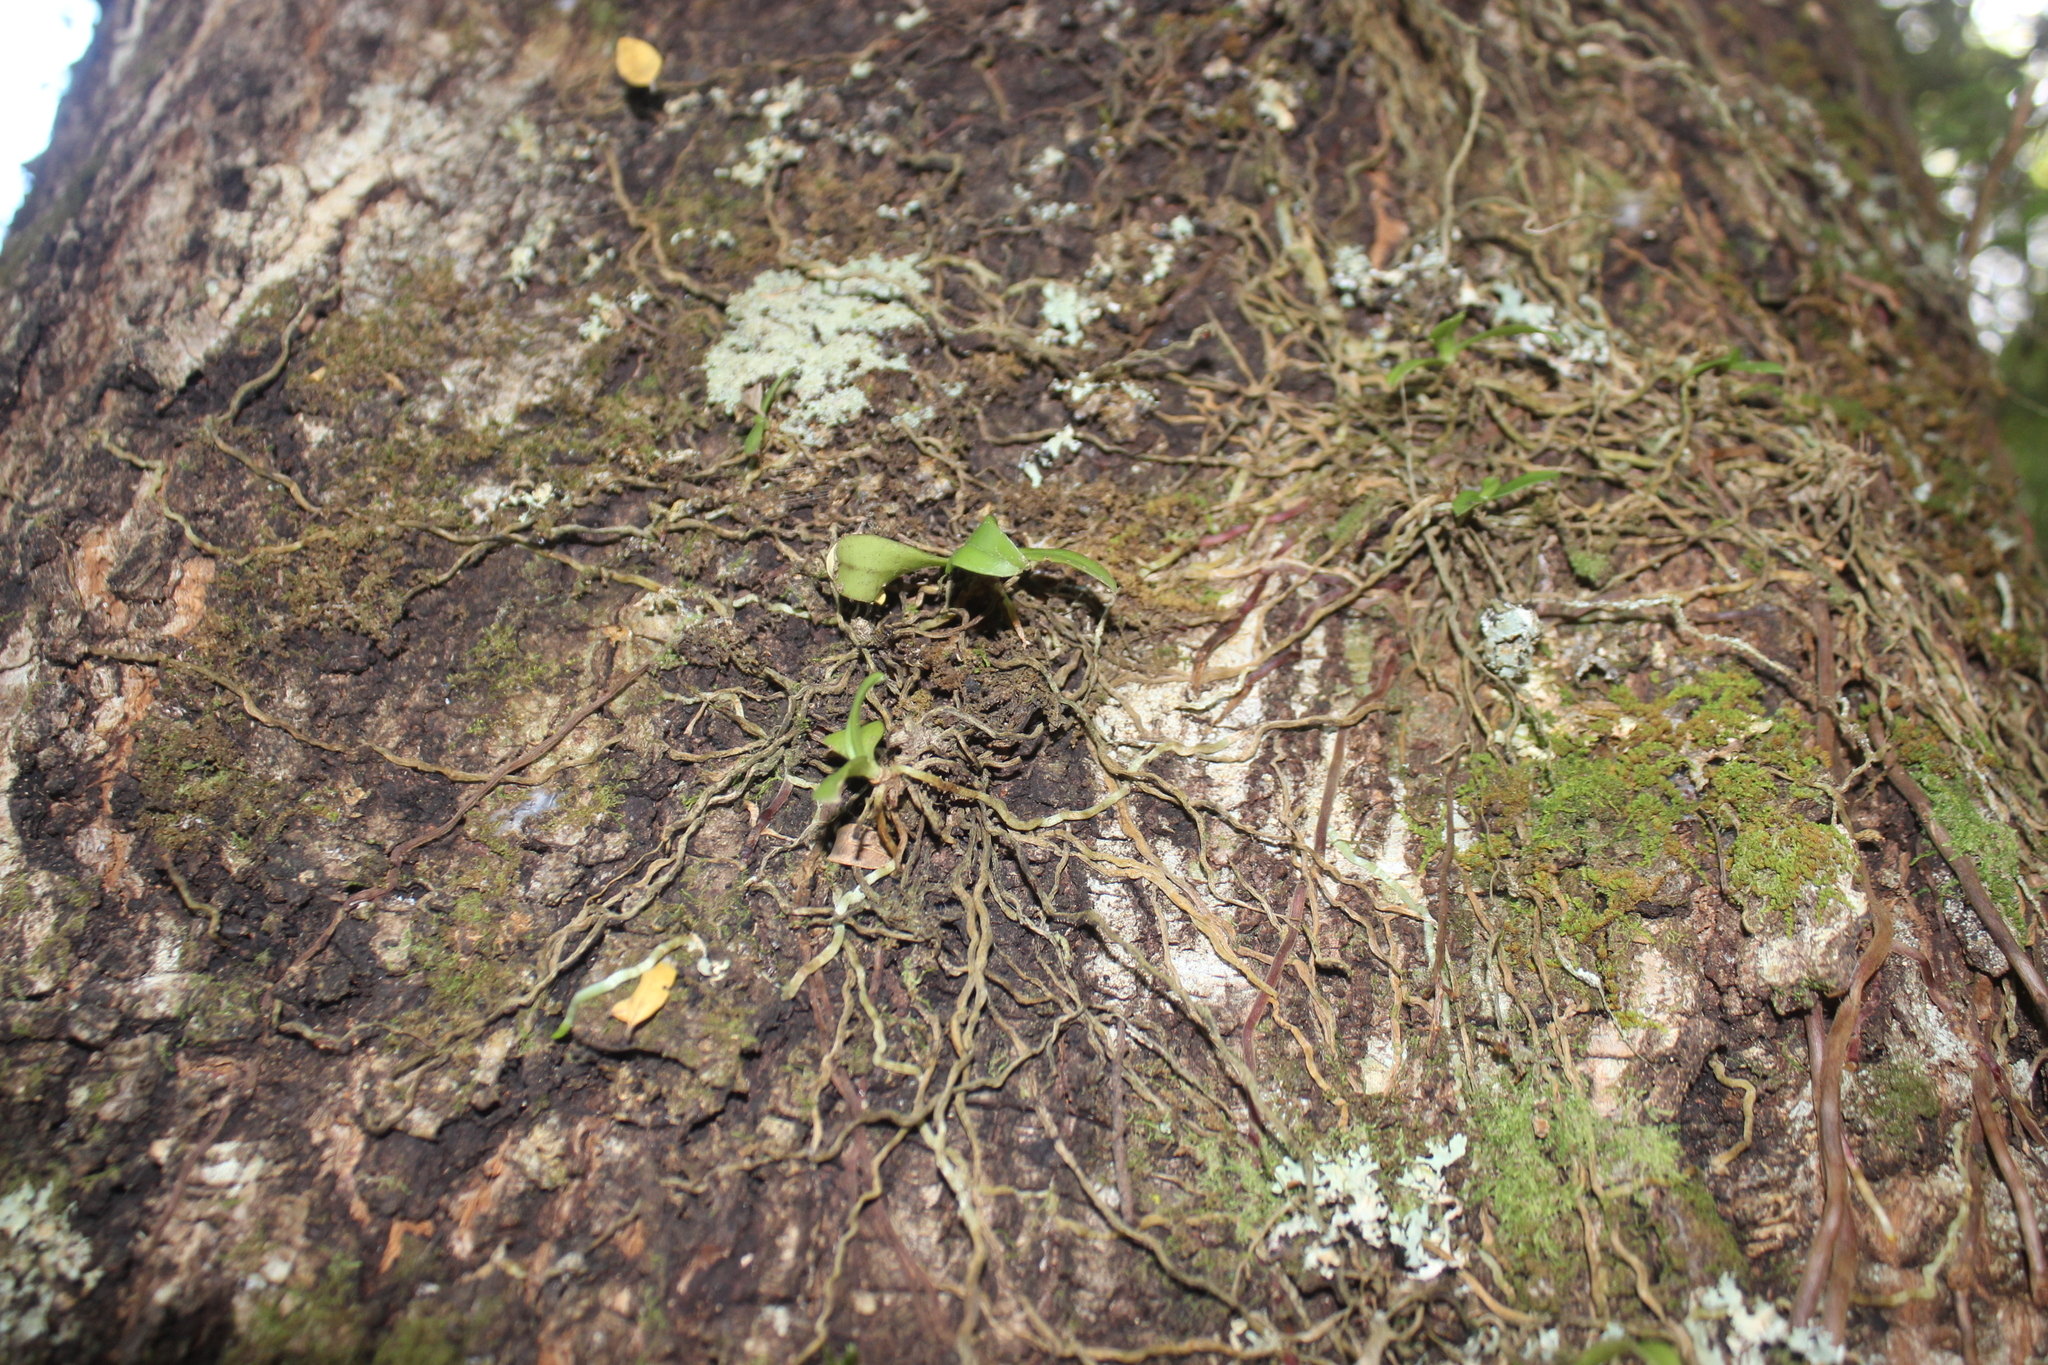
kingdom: Plantae
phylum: Tracheophyta
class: Liliopsida
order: Asparagales
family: Orchidaceae
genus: Drymoanthus
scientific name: Drymoanthus adversus
